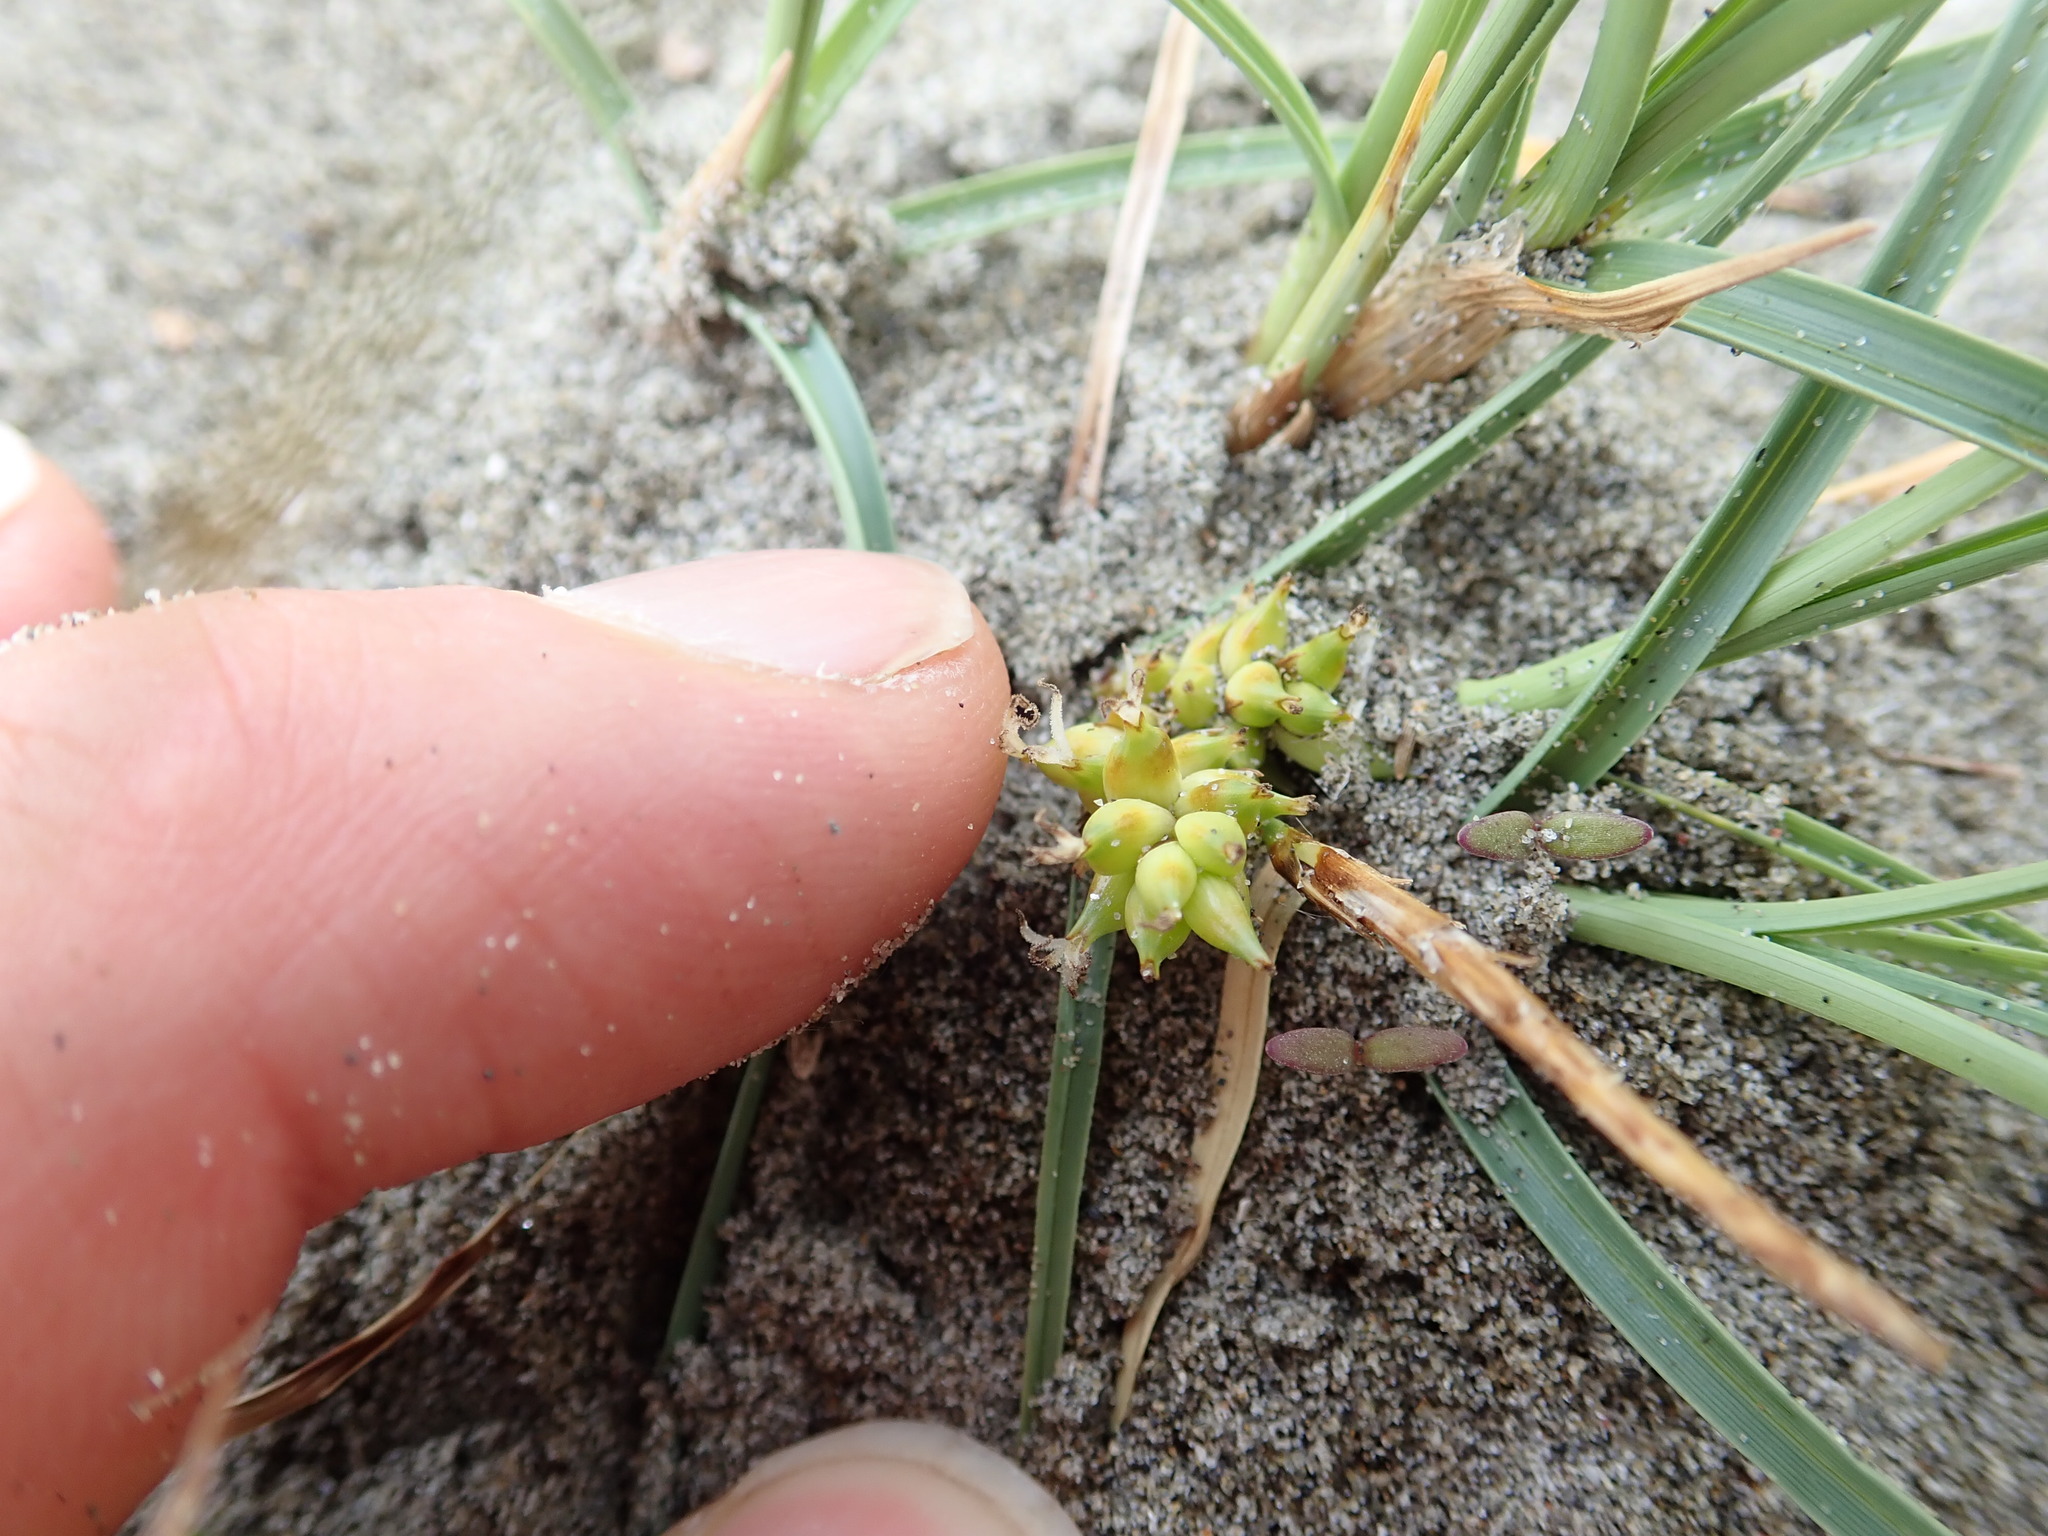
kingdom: Plantae
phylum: Tracheophyta
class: Liliopsida
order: Poales
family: Cyperaceae
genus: Carex
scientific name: Carex pumila
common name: Dwarf sedge
